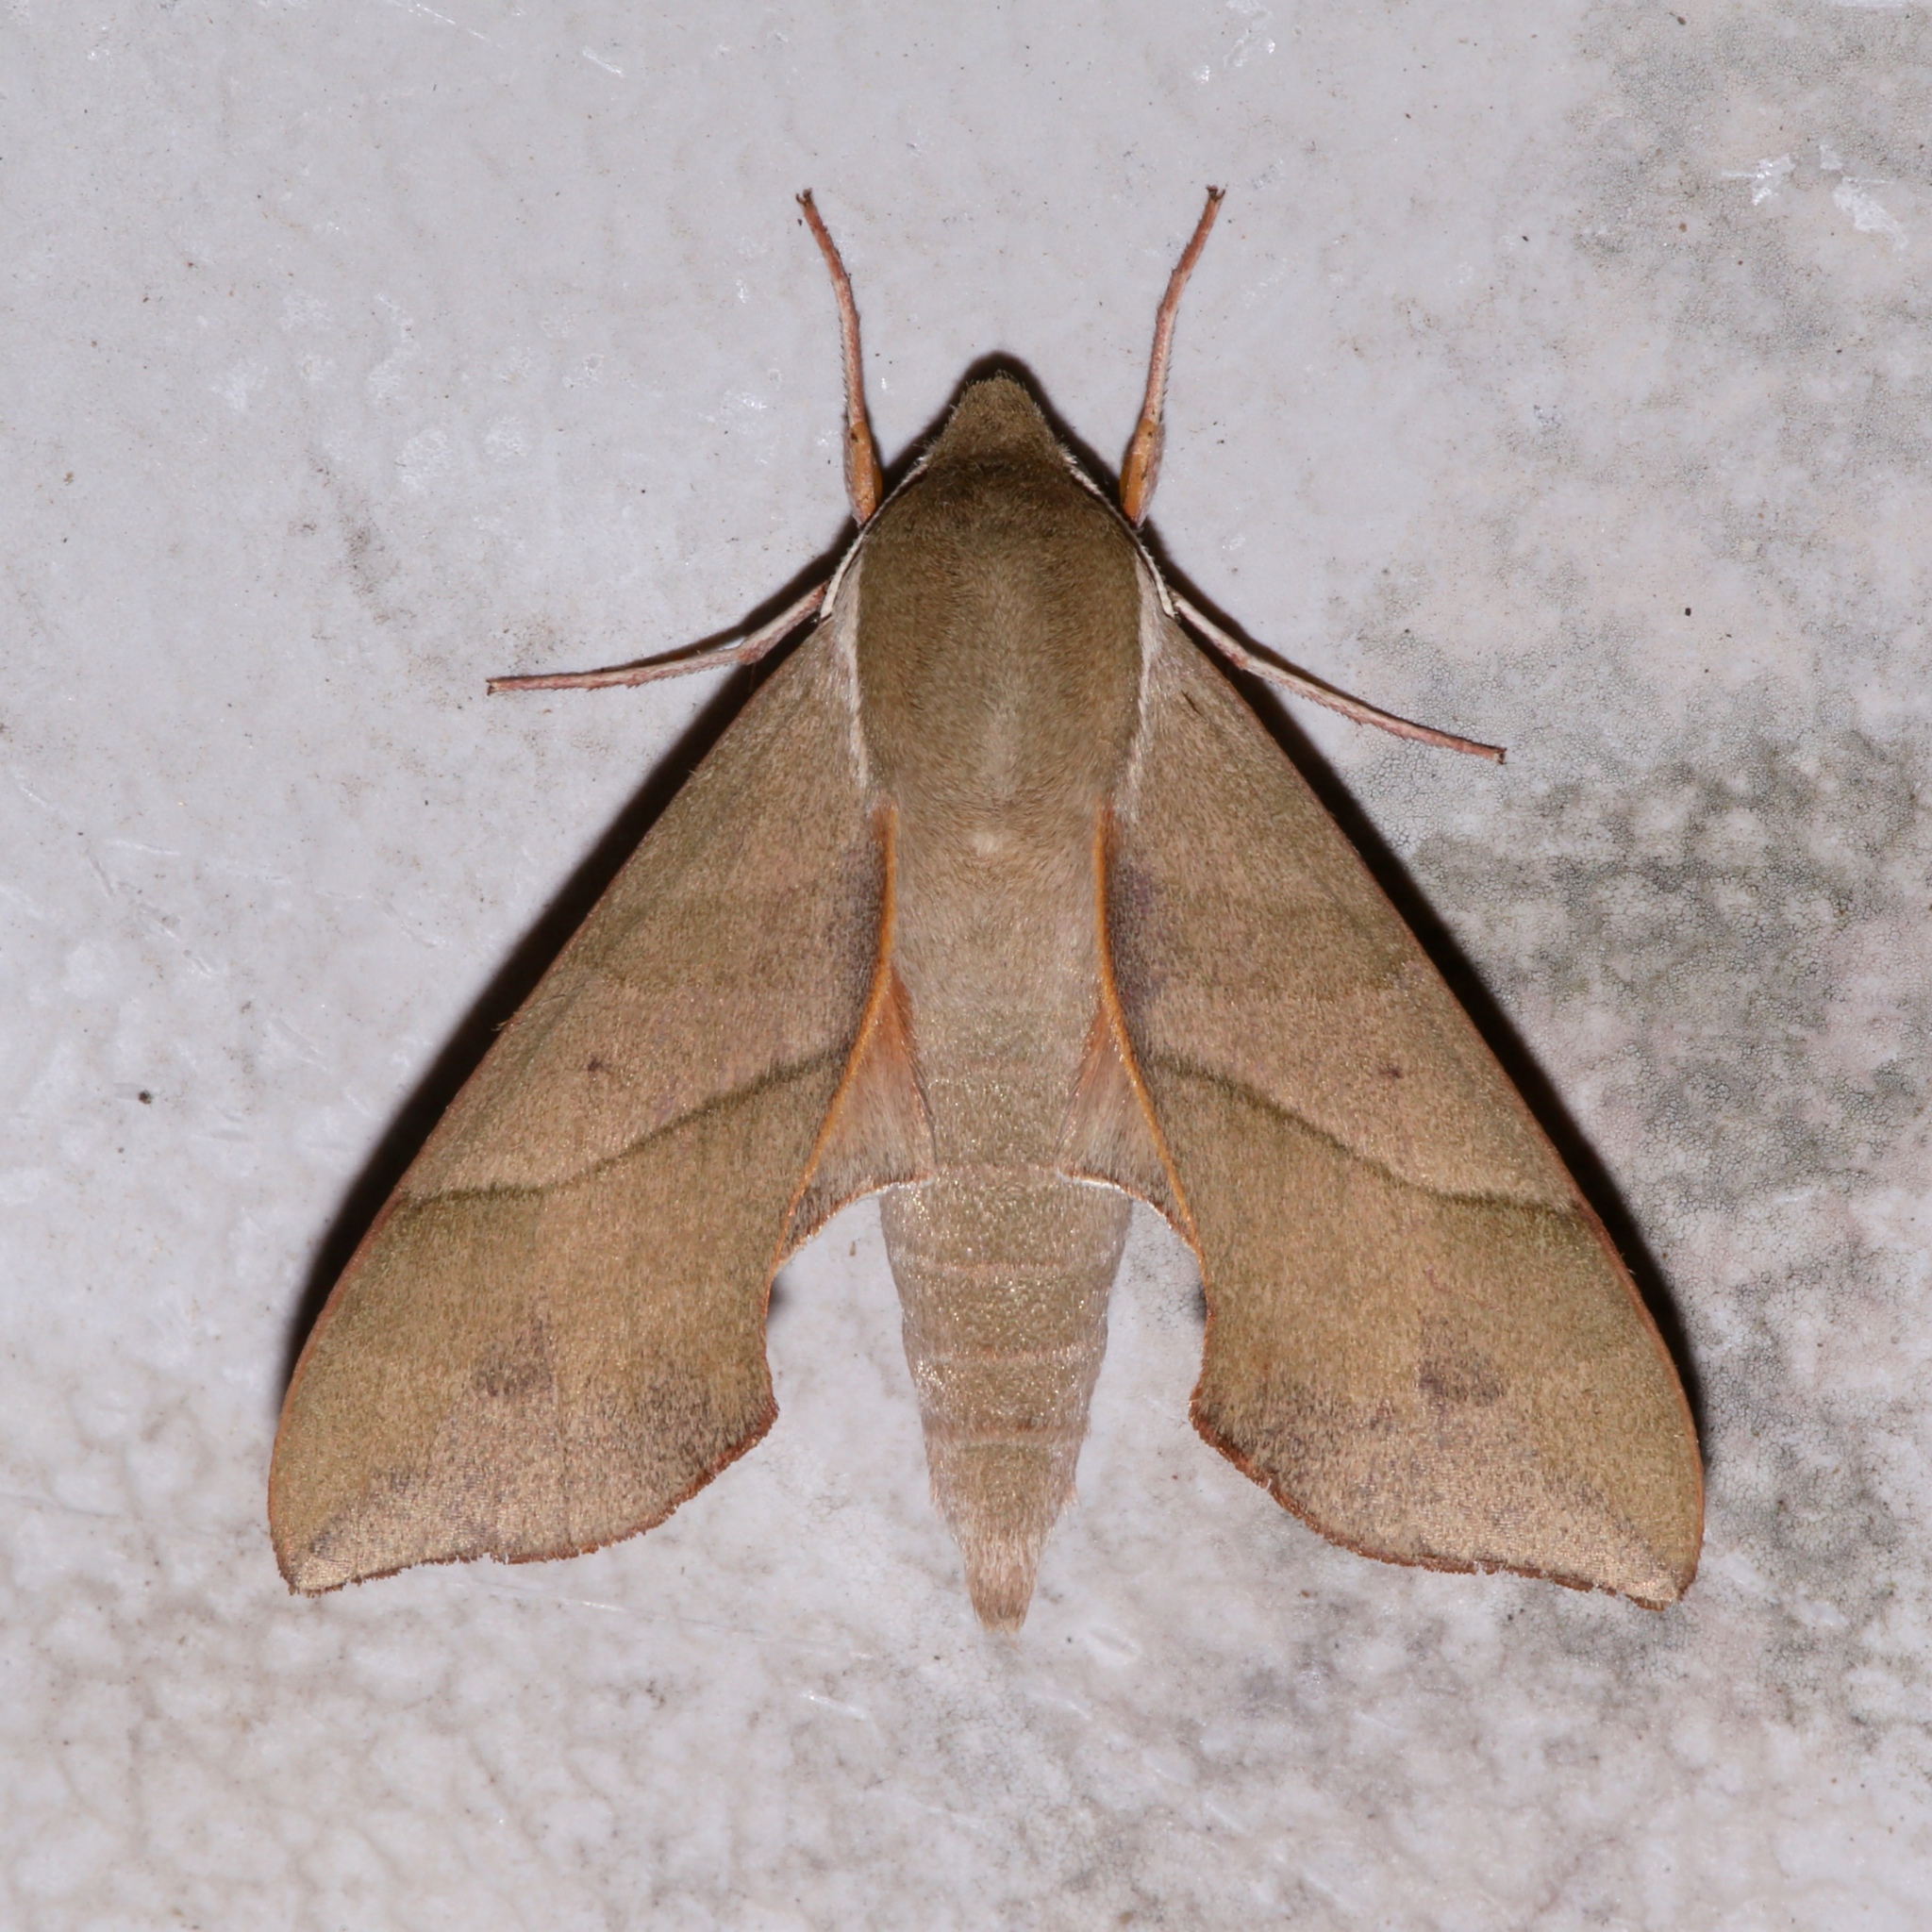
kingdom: Animalia
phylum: Arthropoda
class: Insecta
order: Lepidoptera
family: Sphingidae
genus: Darapsa
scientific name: Darapsa myron
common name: Hog sphinx
